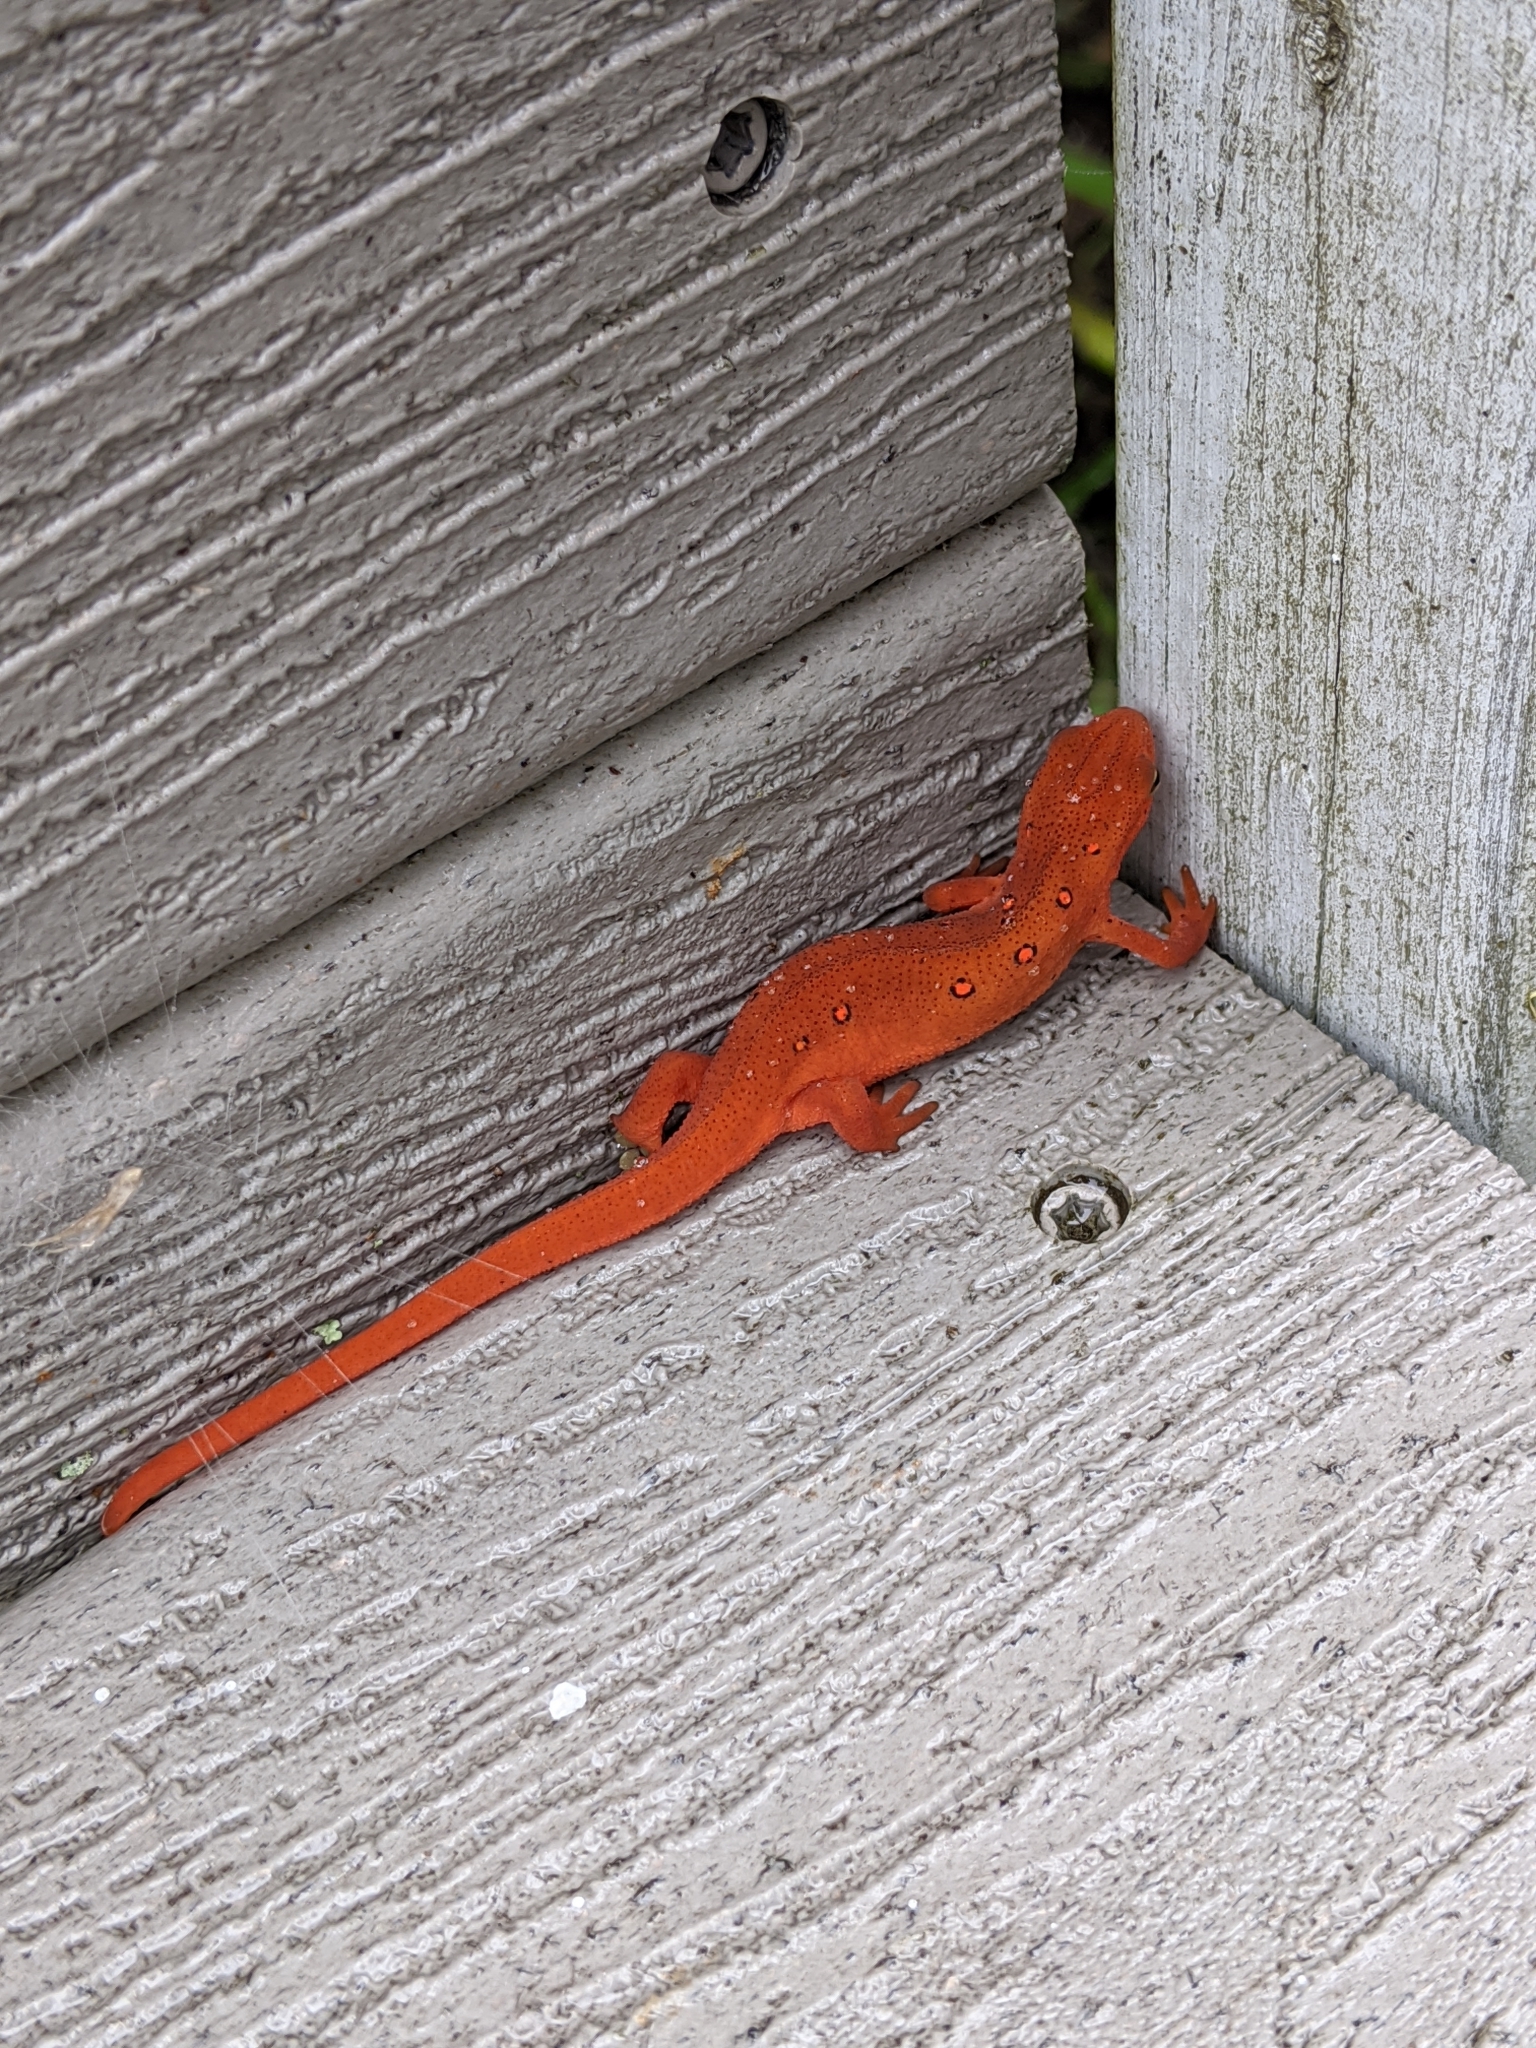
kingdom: Animalia
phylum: Chordata
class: Amphibia
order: Caudata
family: Salamandridae
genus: Notophthalmus
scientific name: Notophthalmus viridescens
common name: Eastern newt
